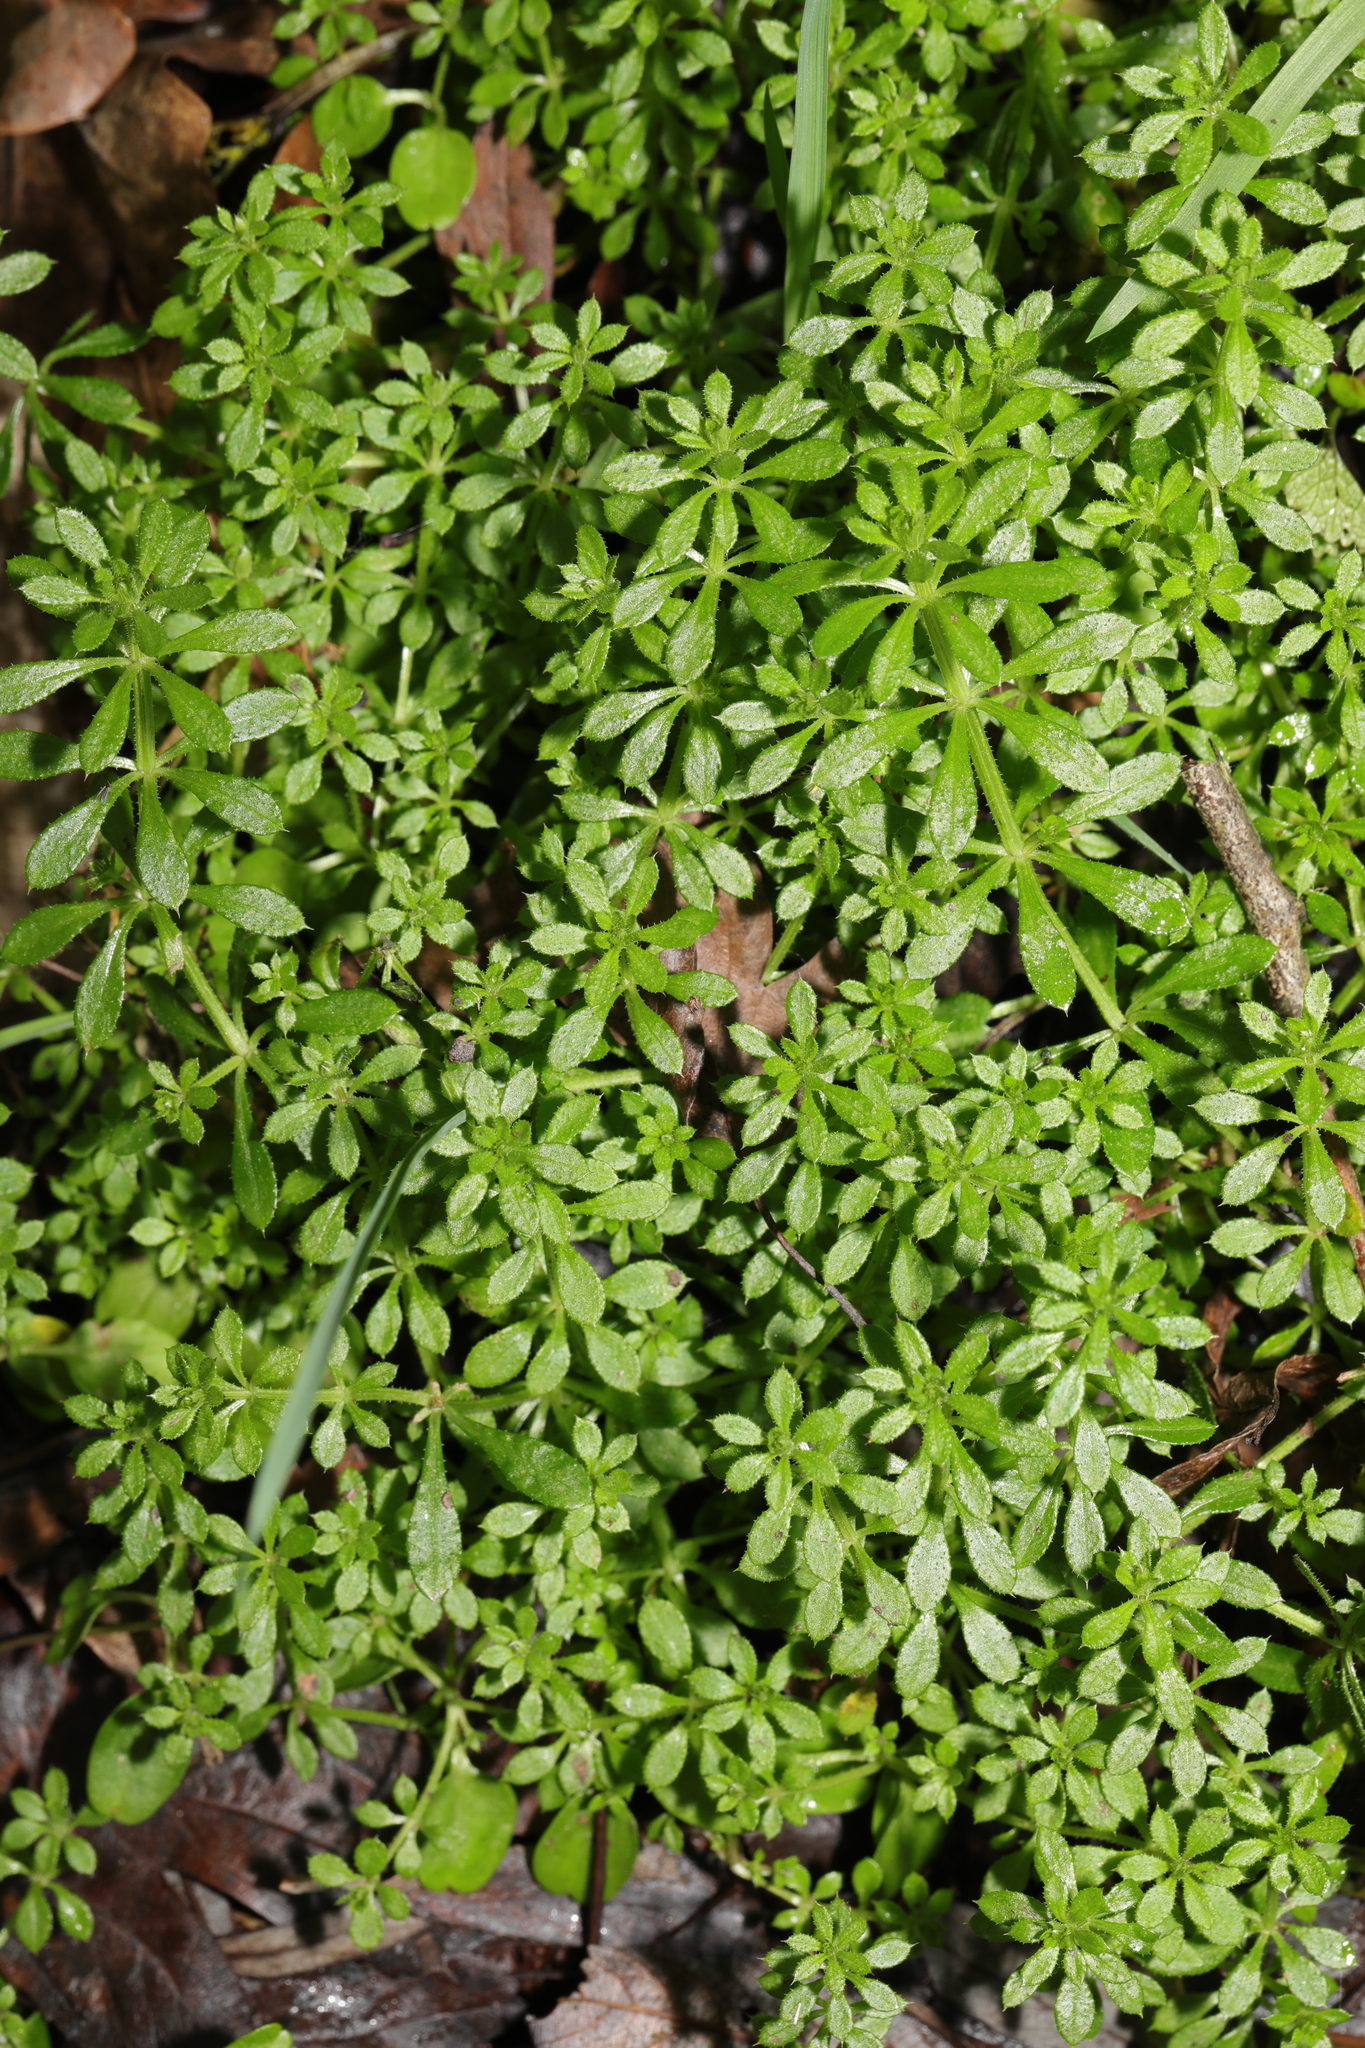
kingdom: Plantae
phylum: Tracheophyta
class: Magnoliopsida
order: Gentianales
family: Rubiaceae
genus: Galium
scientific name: Galium aparine
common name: Cleavers
